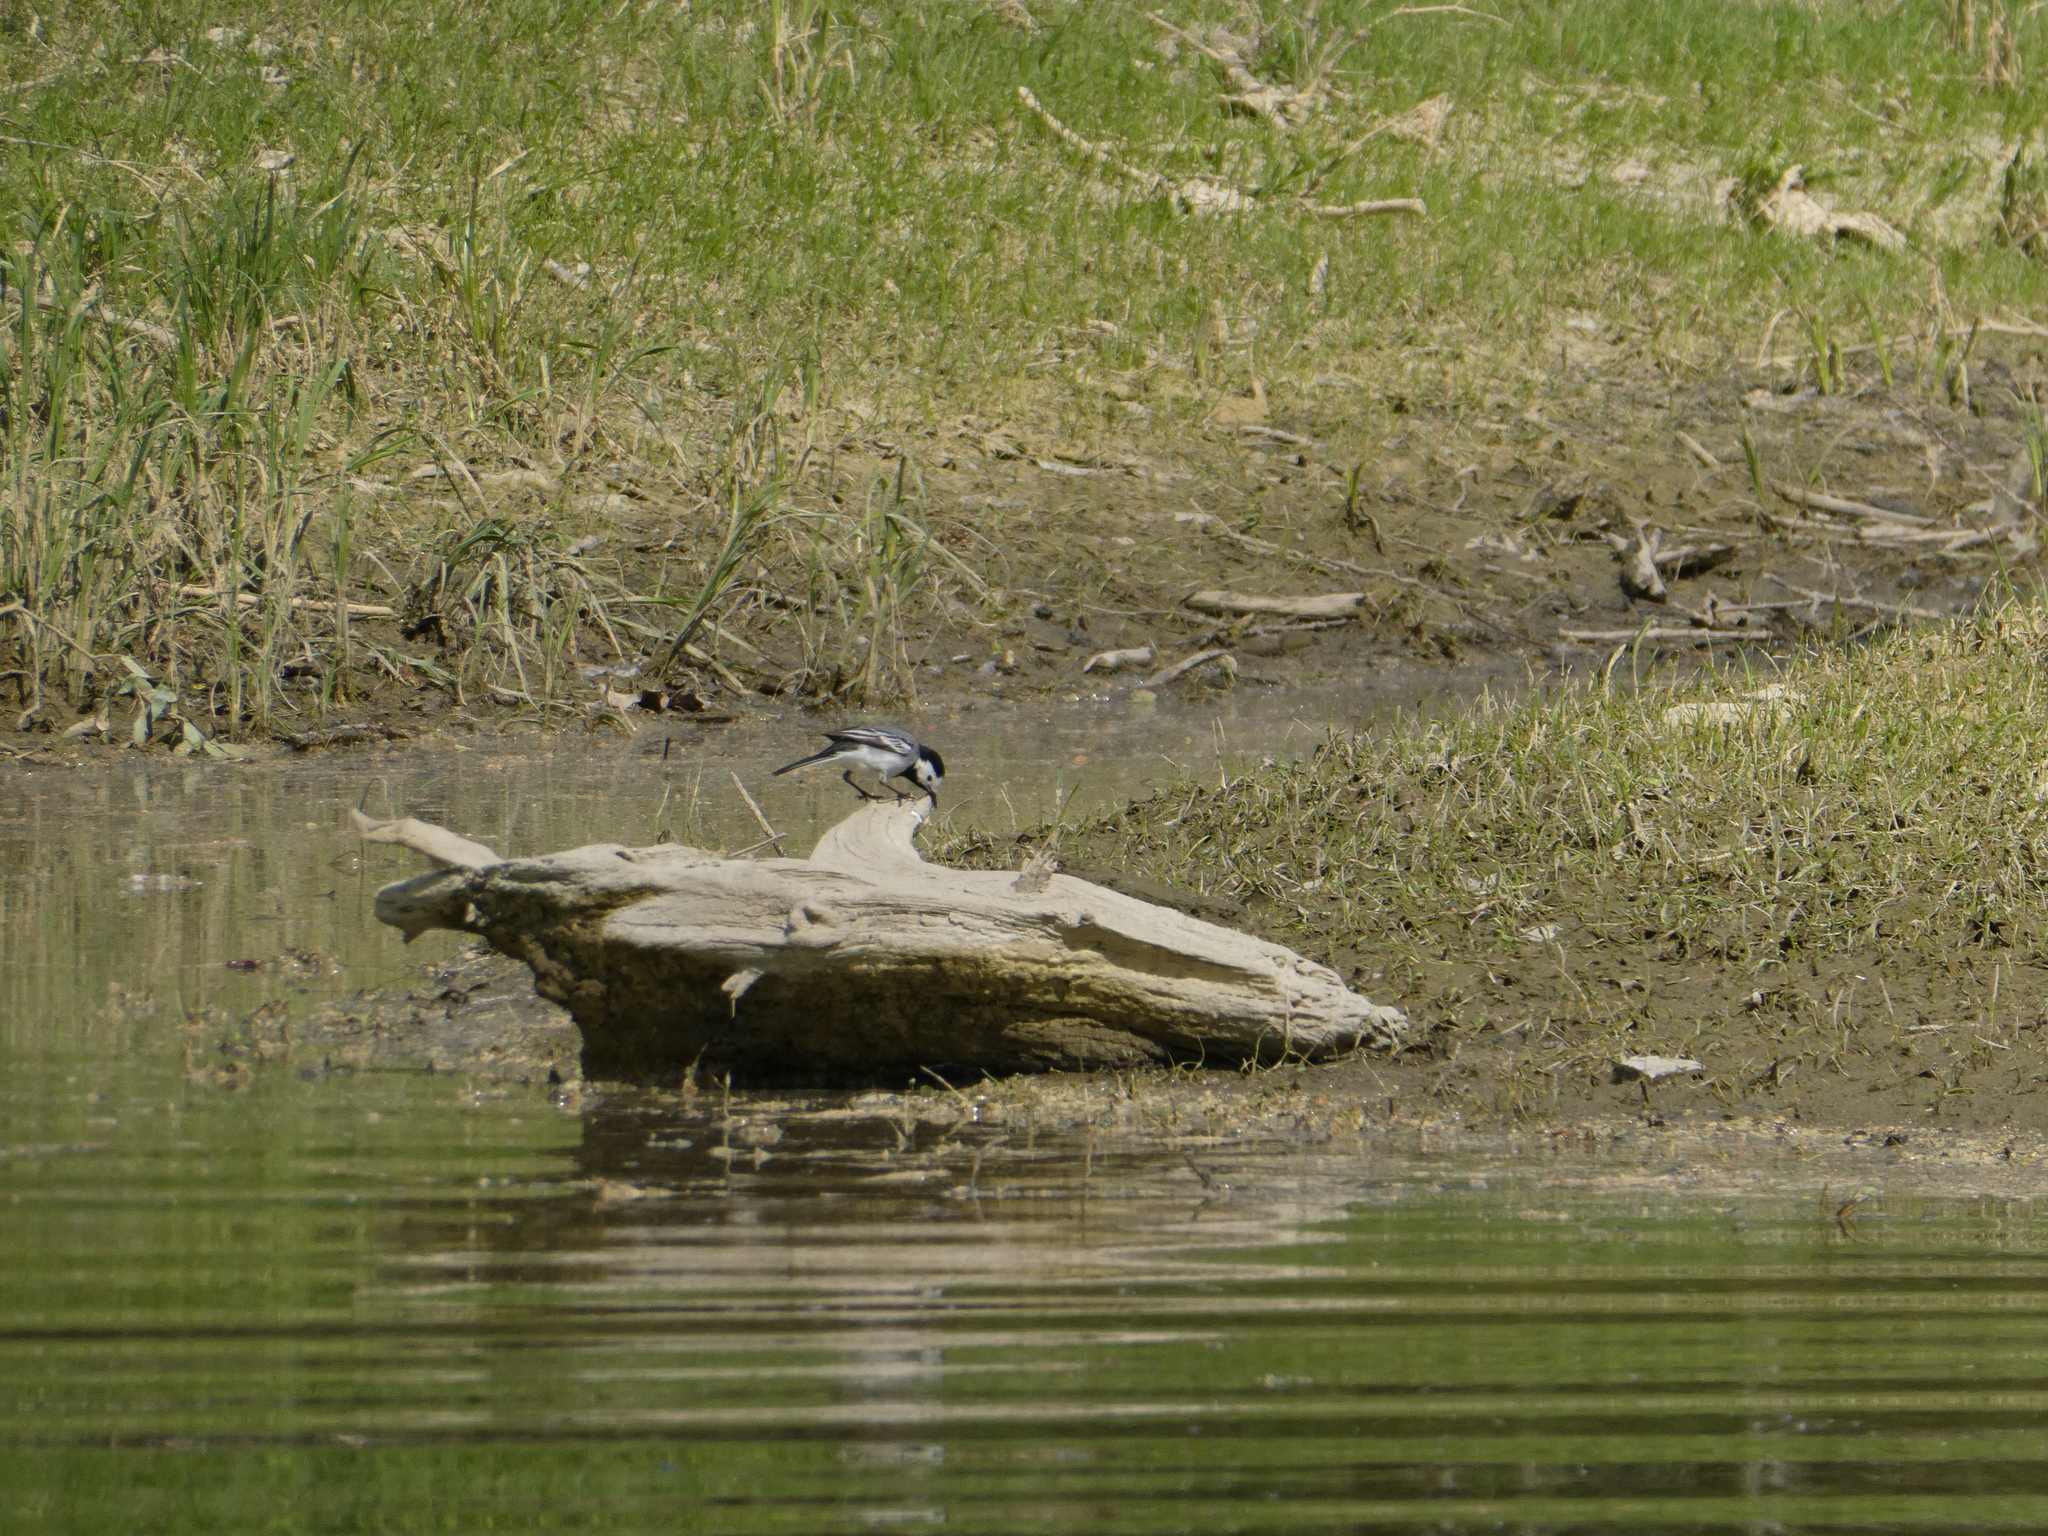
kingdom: Animalia
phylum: Chordata
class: Aves
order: Passeriformes
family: Motacillidae
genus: Motacilla
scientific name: Motacilla alba
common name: White wagtail
